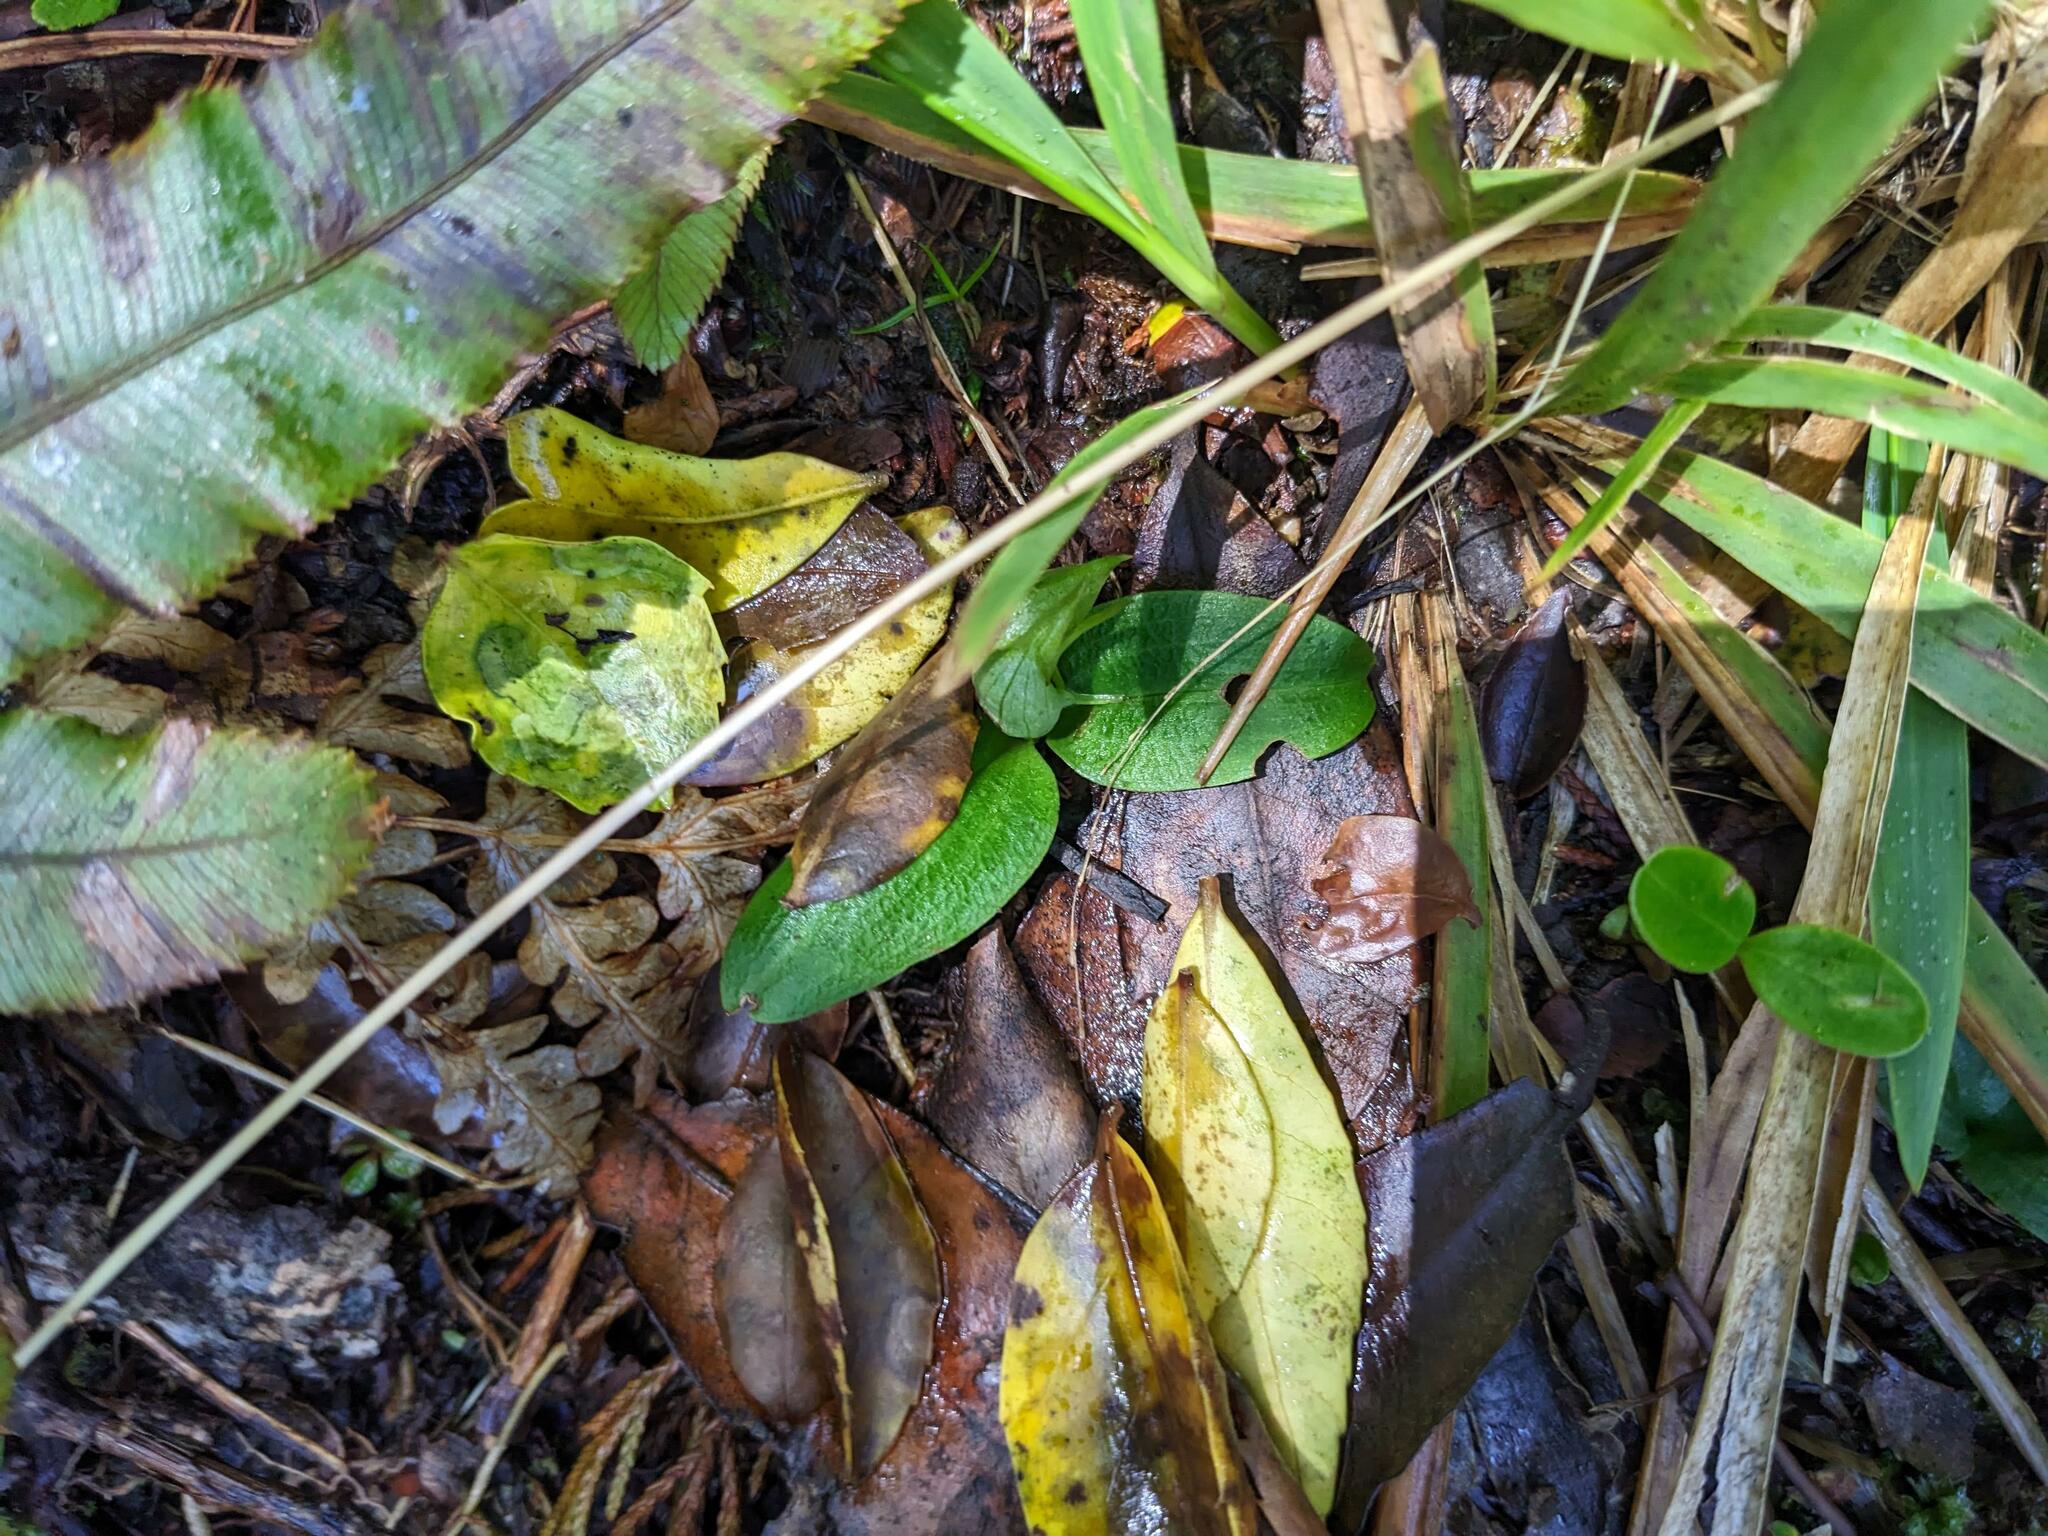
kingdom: Plantae
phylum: Tracheophyta
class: Liliopsida
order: Asparagales
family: Orchidaceae
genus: Chiloglottis
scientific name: Chiloglottis cornuta
